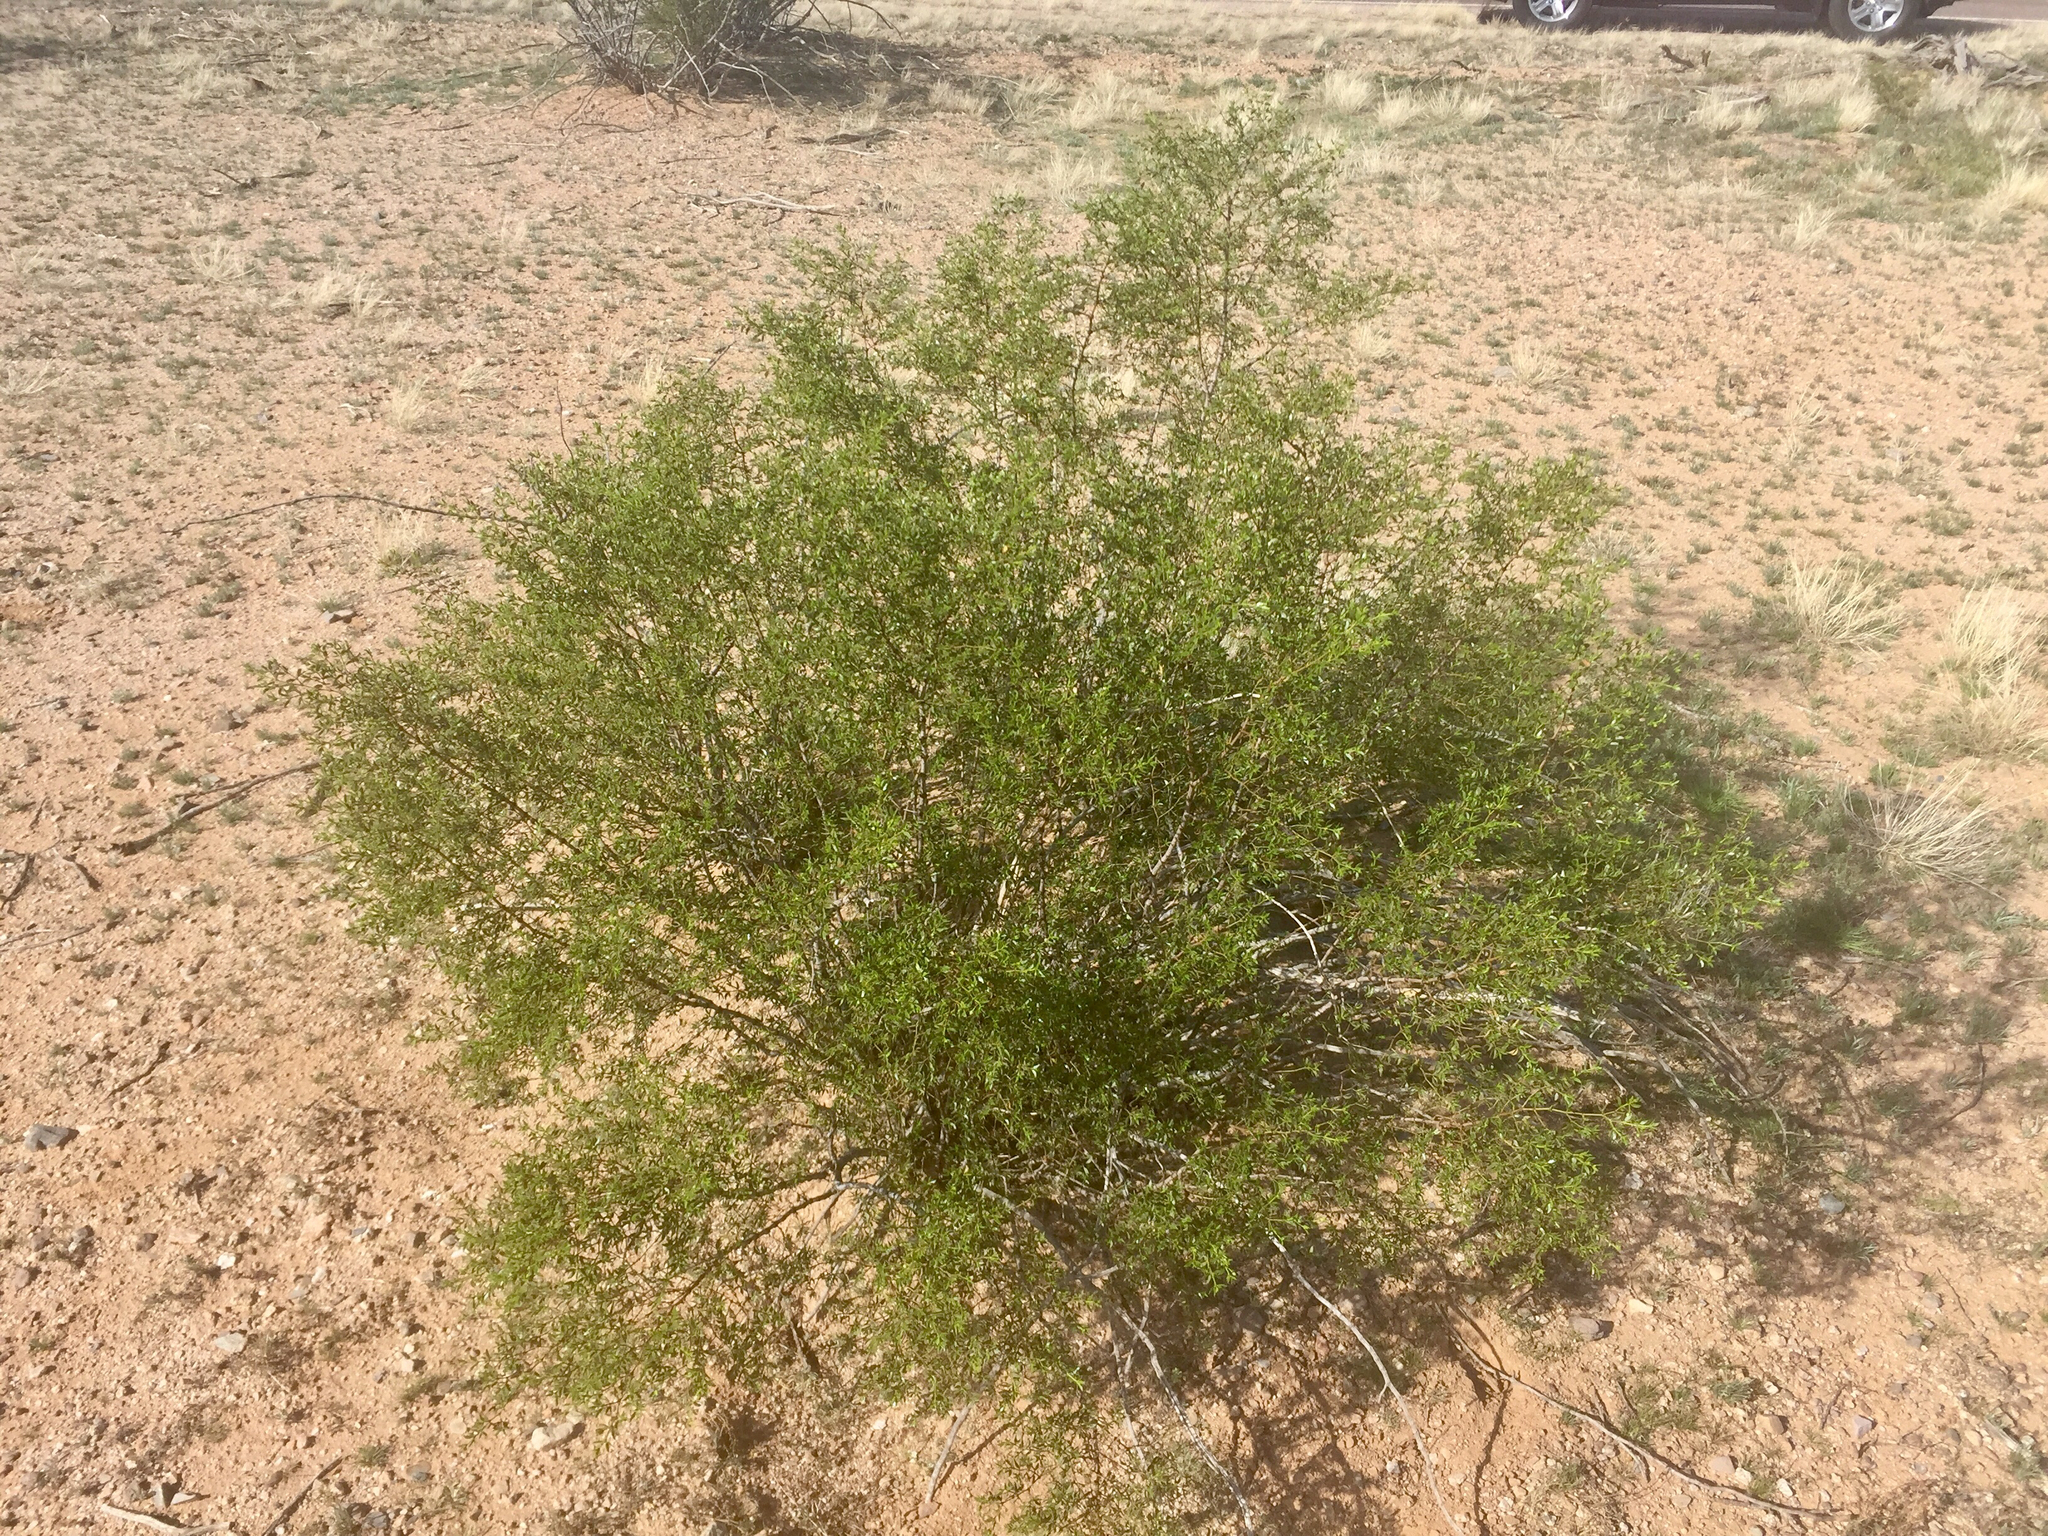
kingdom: Plantae
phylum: Tracheophyta
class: Magnoliopsida
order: Zygophyllales
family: Zygophyllaceae
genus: Larrea
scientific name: Larrea tridentata
